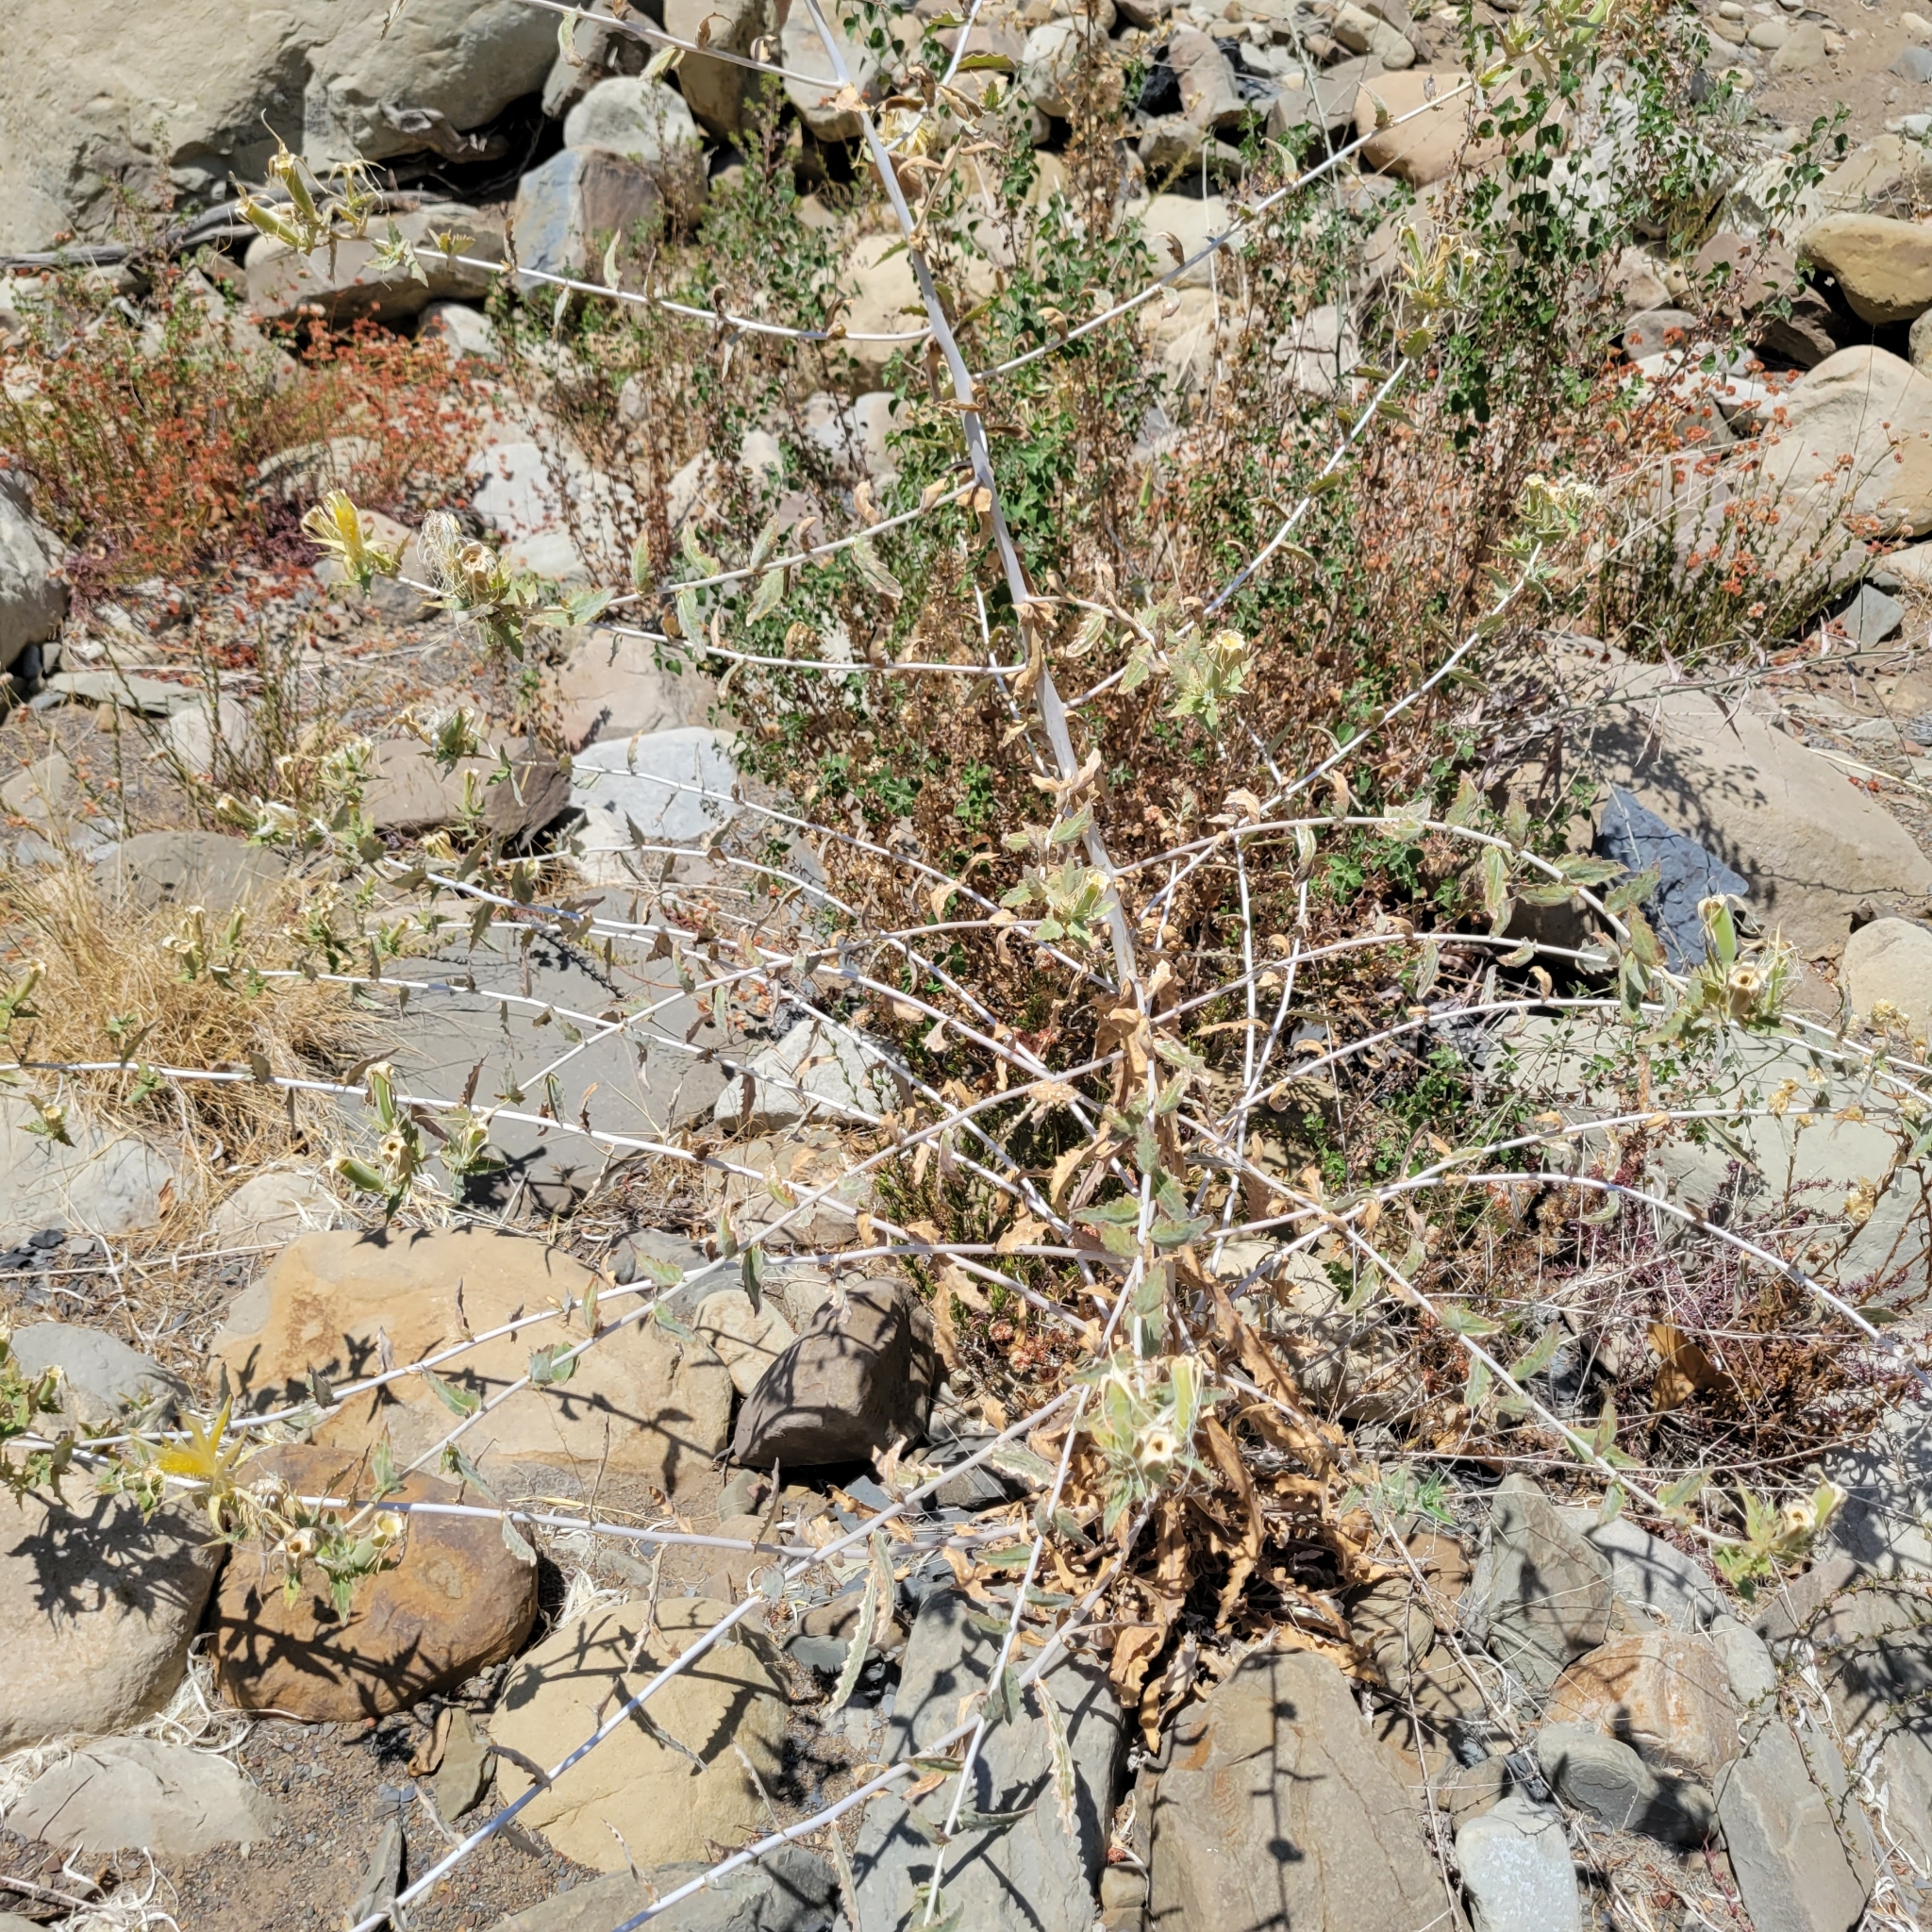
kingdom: Plantae
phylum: Tracheophyta
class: Magnoliopsida
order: Cornales
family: Loasaceae
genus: Mentzelia
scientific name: Mentzelia laevicaulis
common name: Smooth-stem blazingstar
